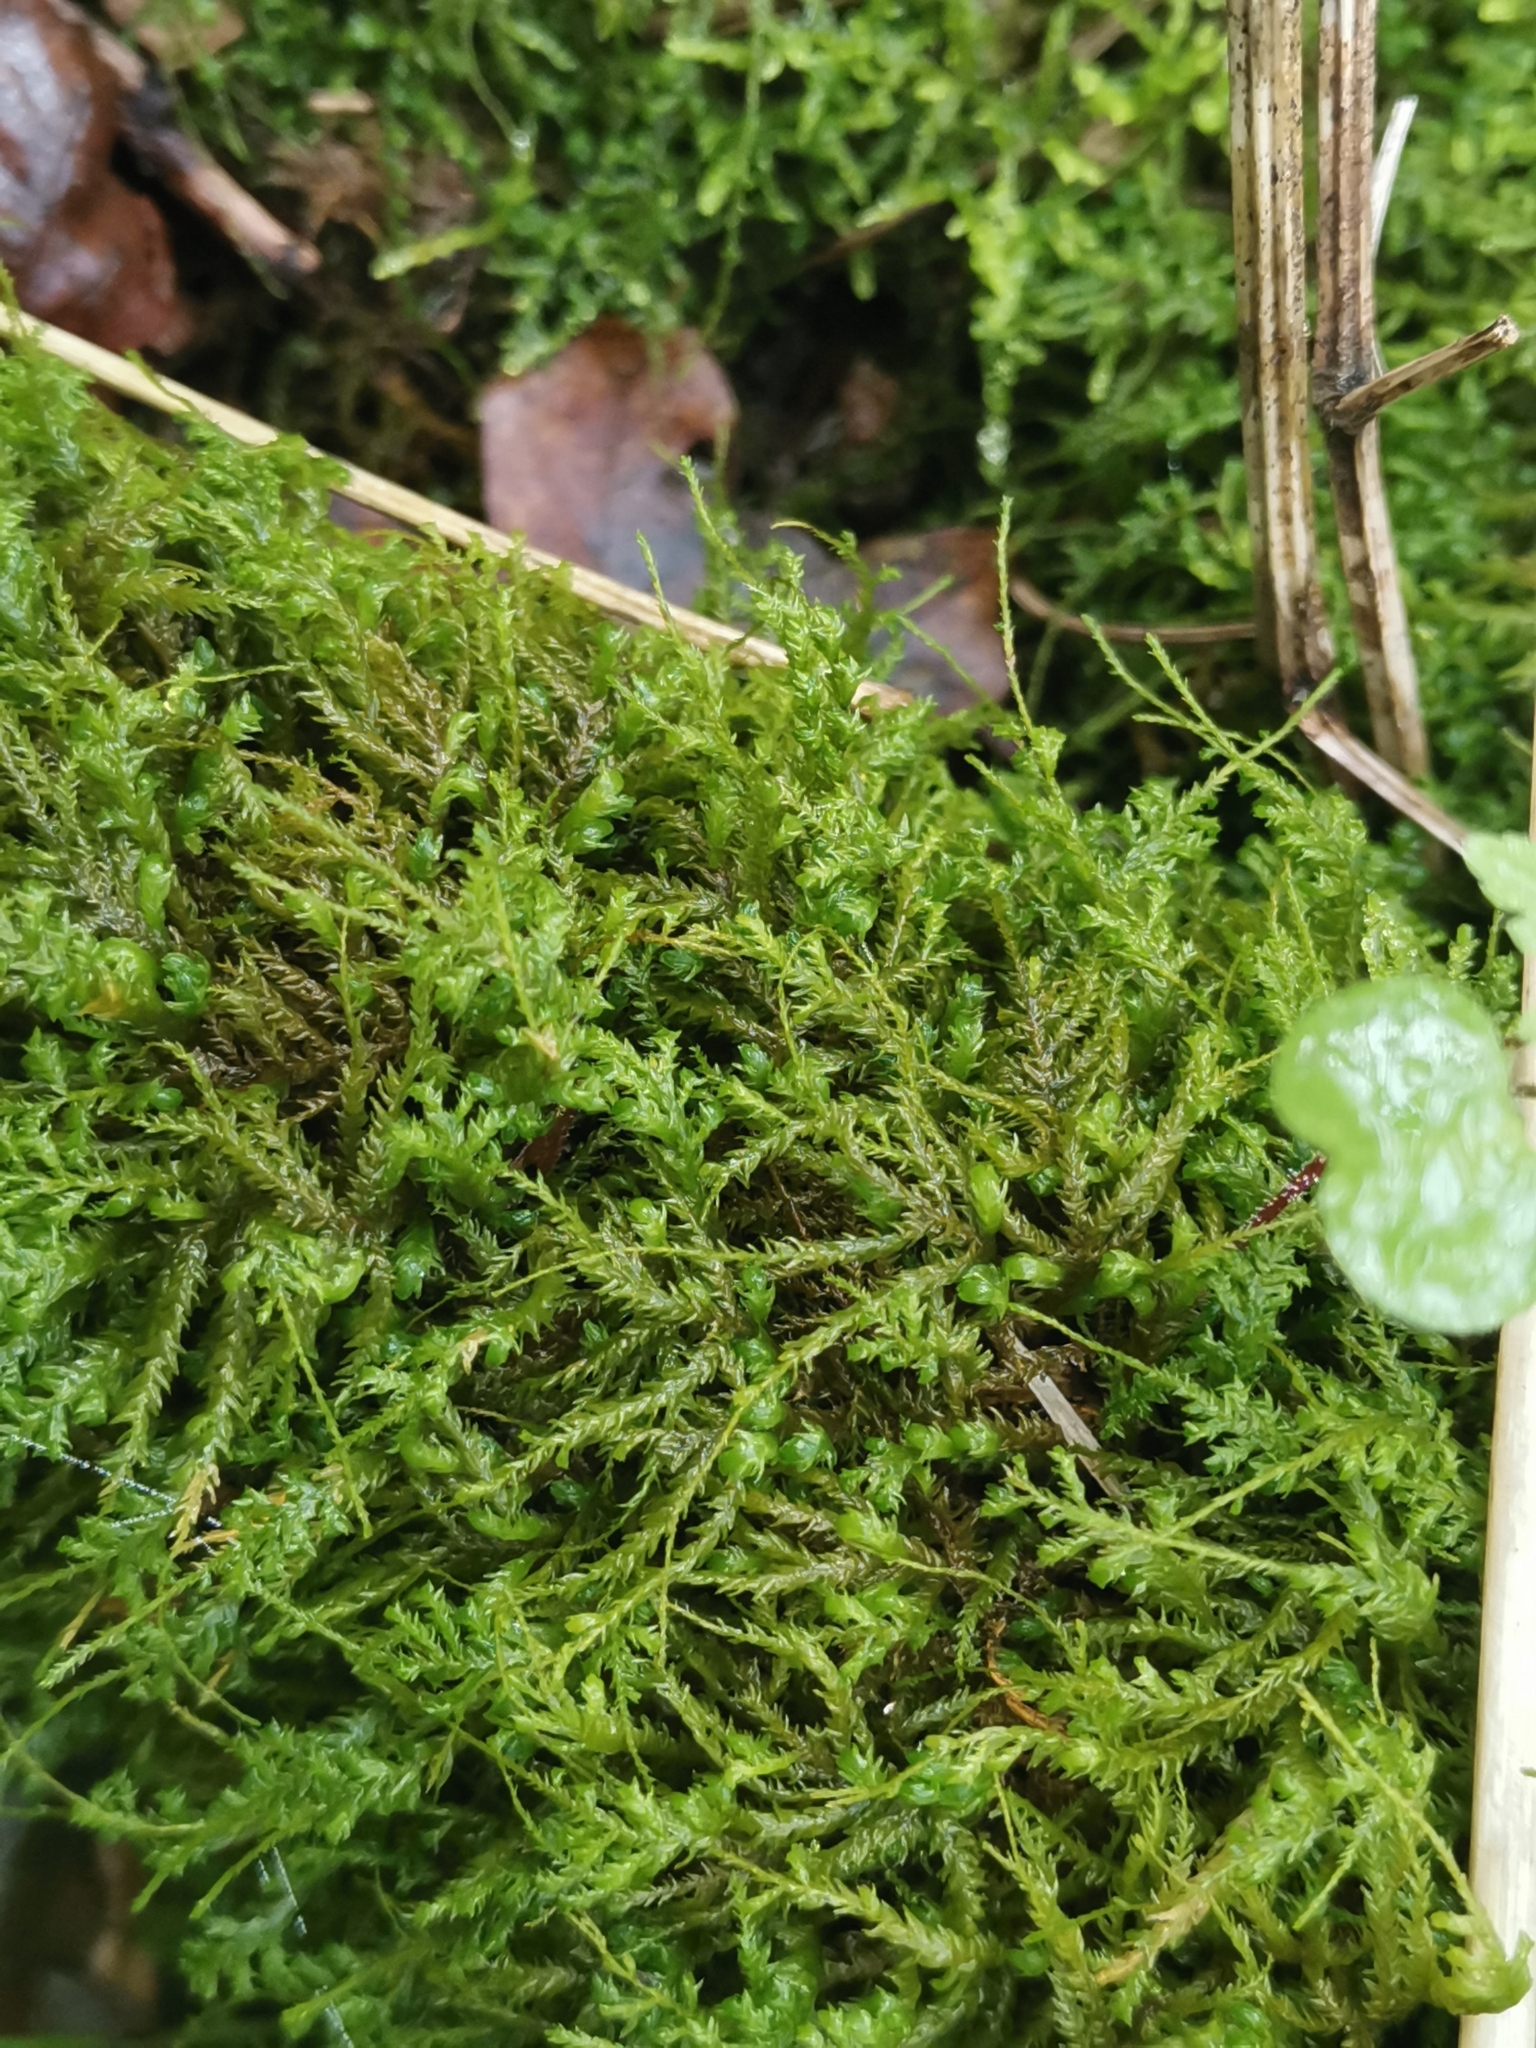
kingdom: Plantae
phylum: Bryophyta
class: Bryopsida
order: Hypnales
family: Neckeraceae
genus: Pseudanomodon
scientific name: Pseudanomodon attenuatus
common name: Tree-skirt moss
